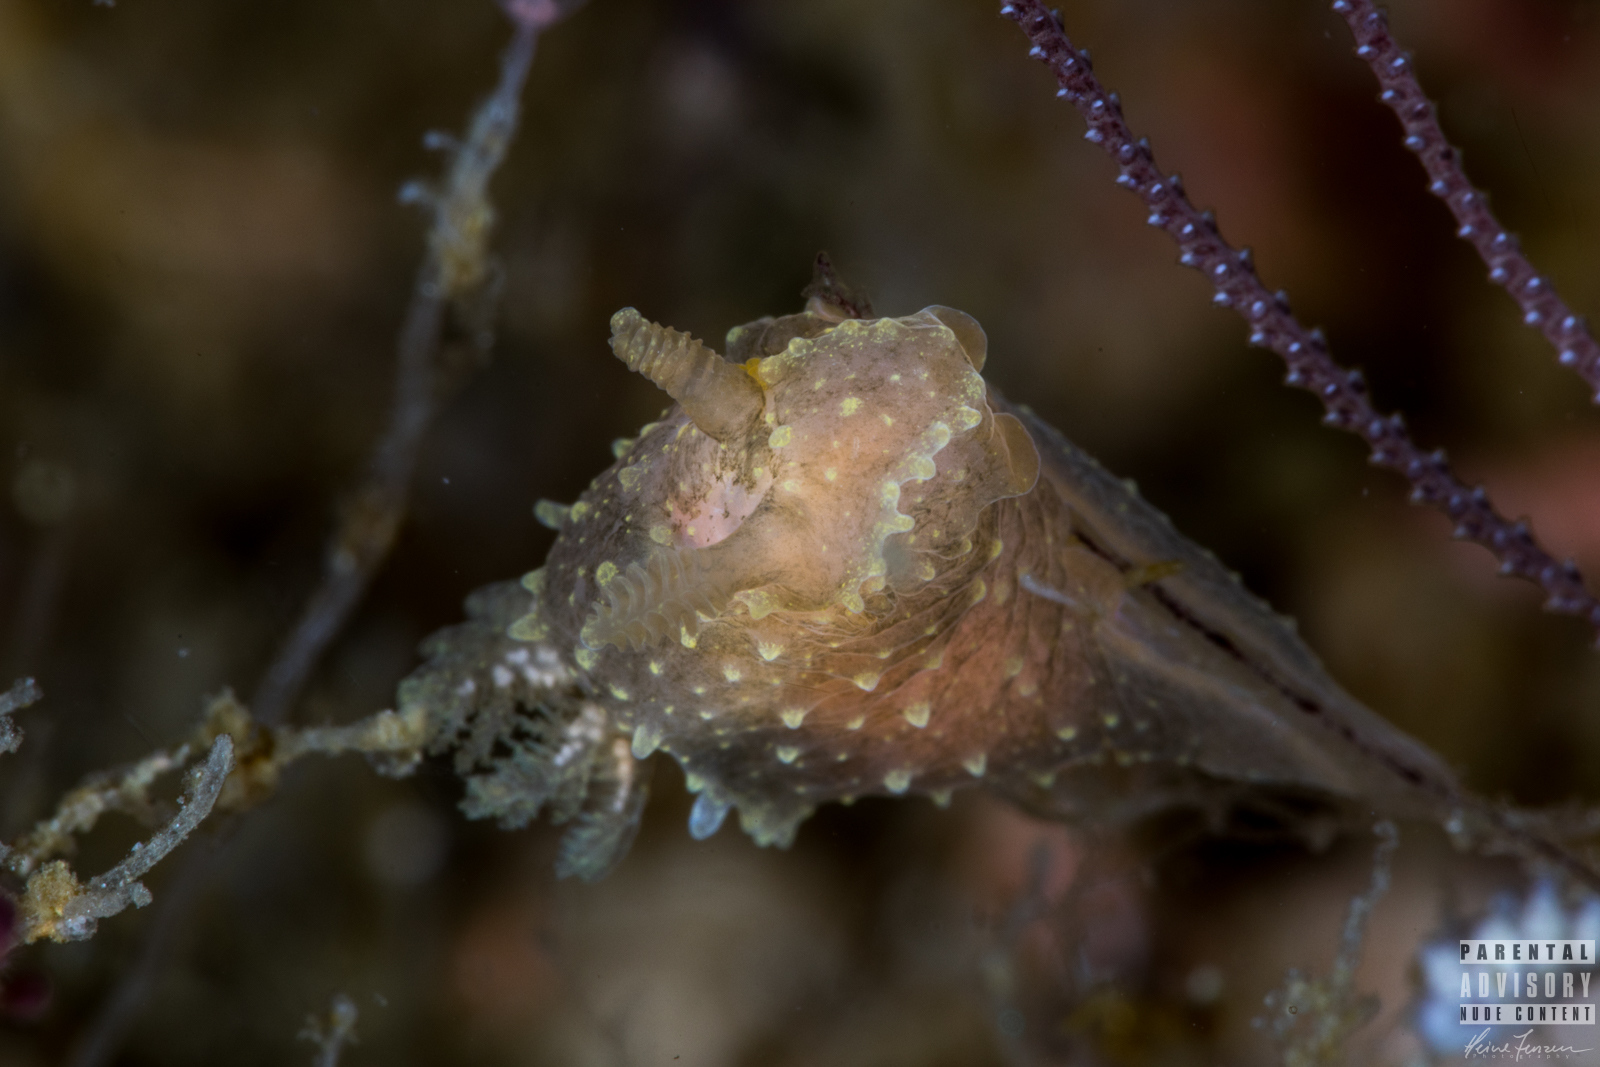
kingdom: Animalia
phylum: Mollusca
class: Gastropoda
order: Nudibranchia
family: Polyceridae
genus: Palio
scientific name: Palio dubia
